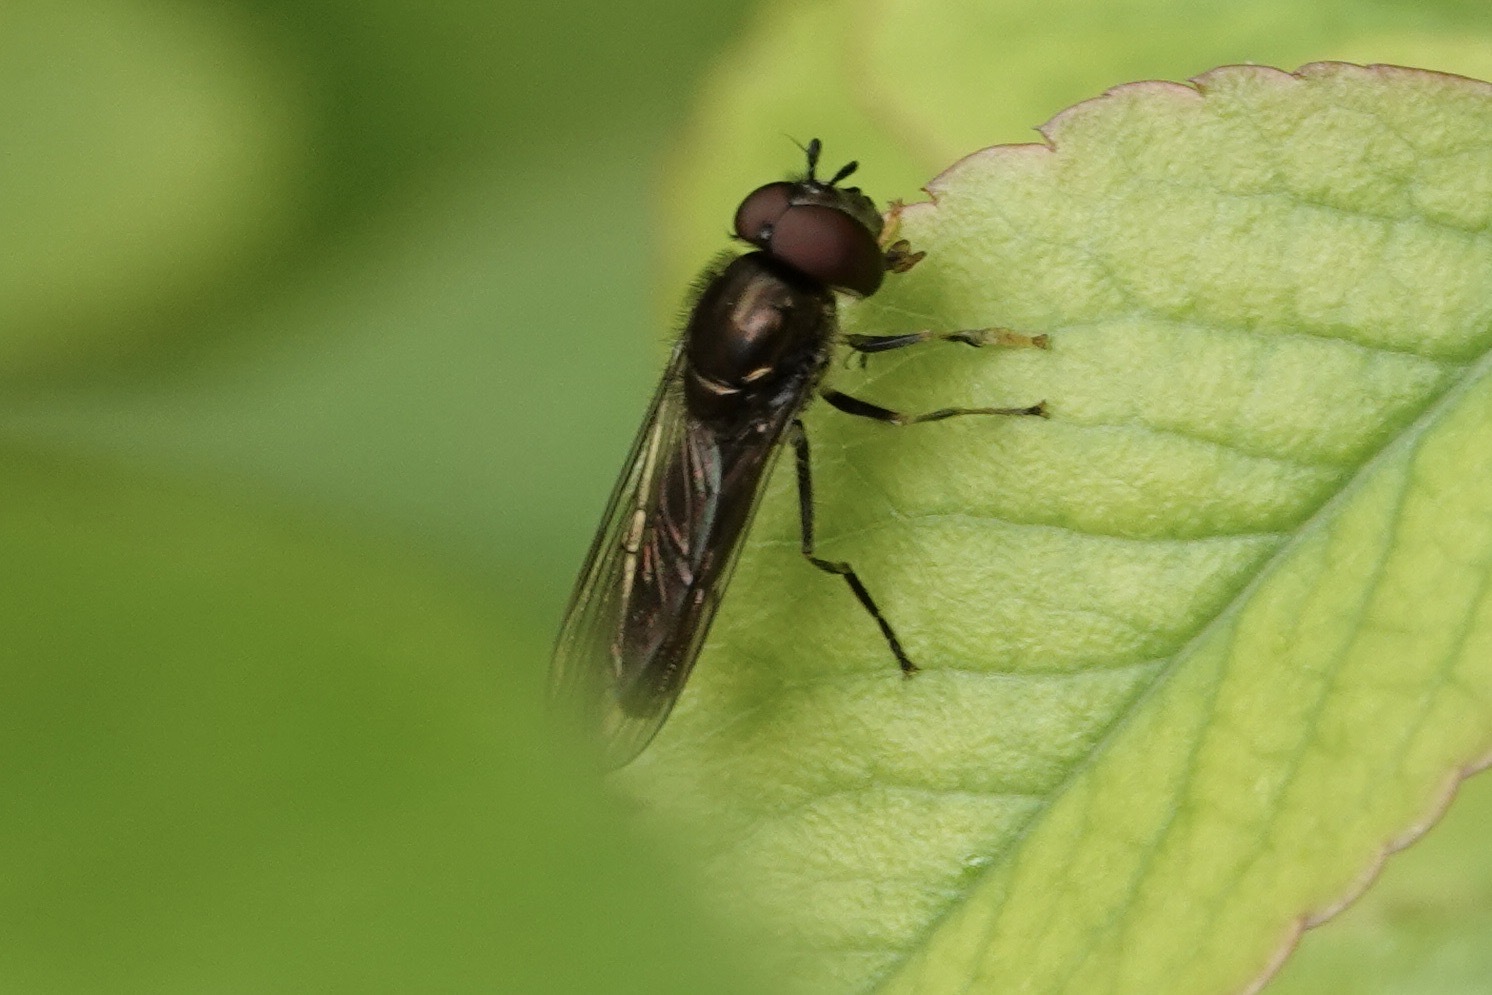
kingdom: Animalia
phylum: Arthropoda
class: Insecta
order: Diptera
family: Syrphidae
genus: Platycheirus
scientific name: Platycheirus albimanus
